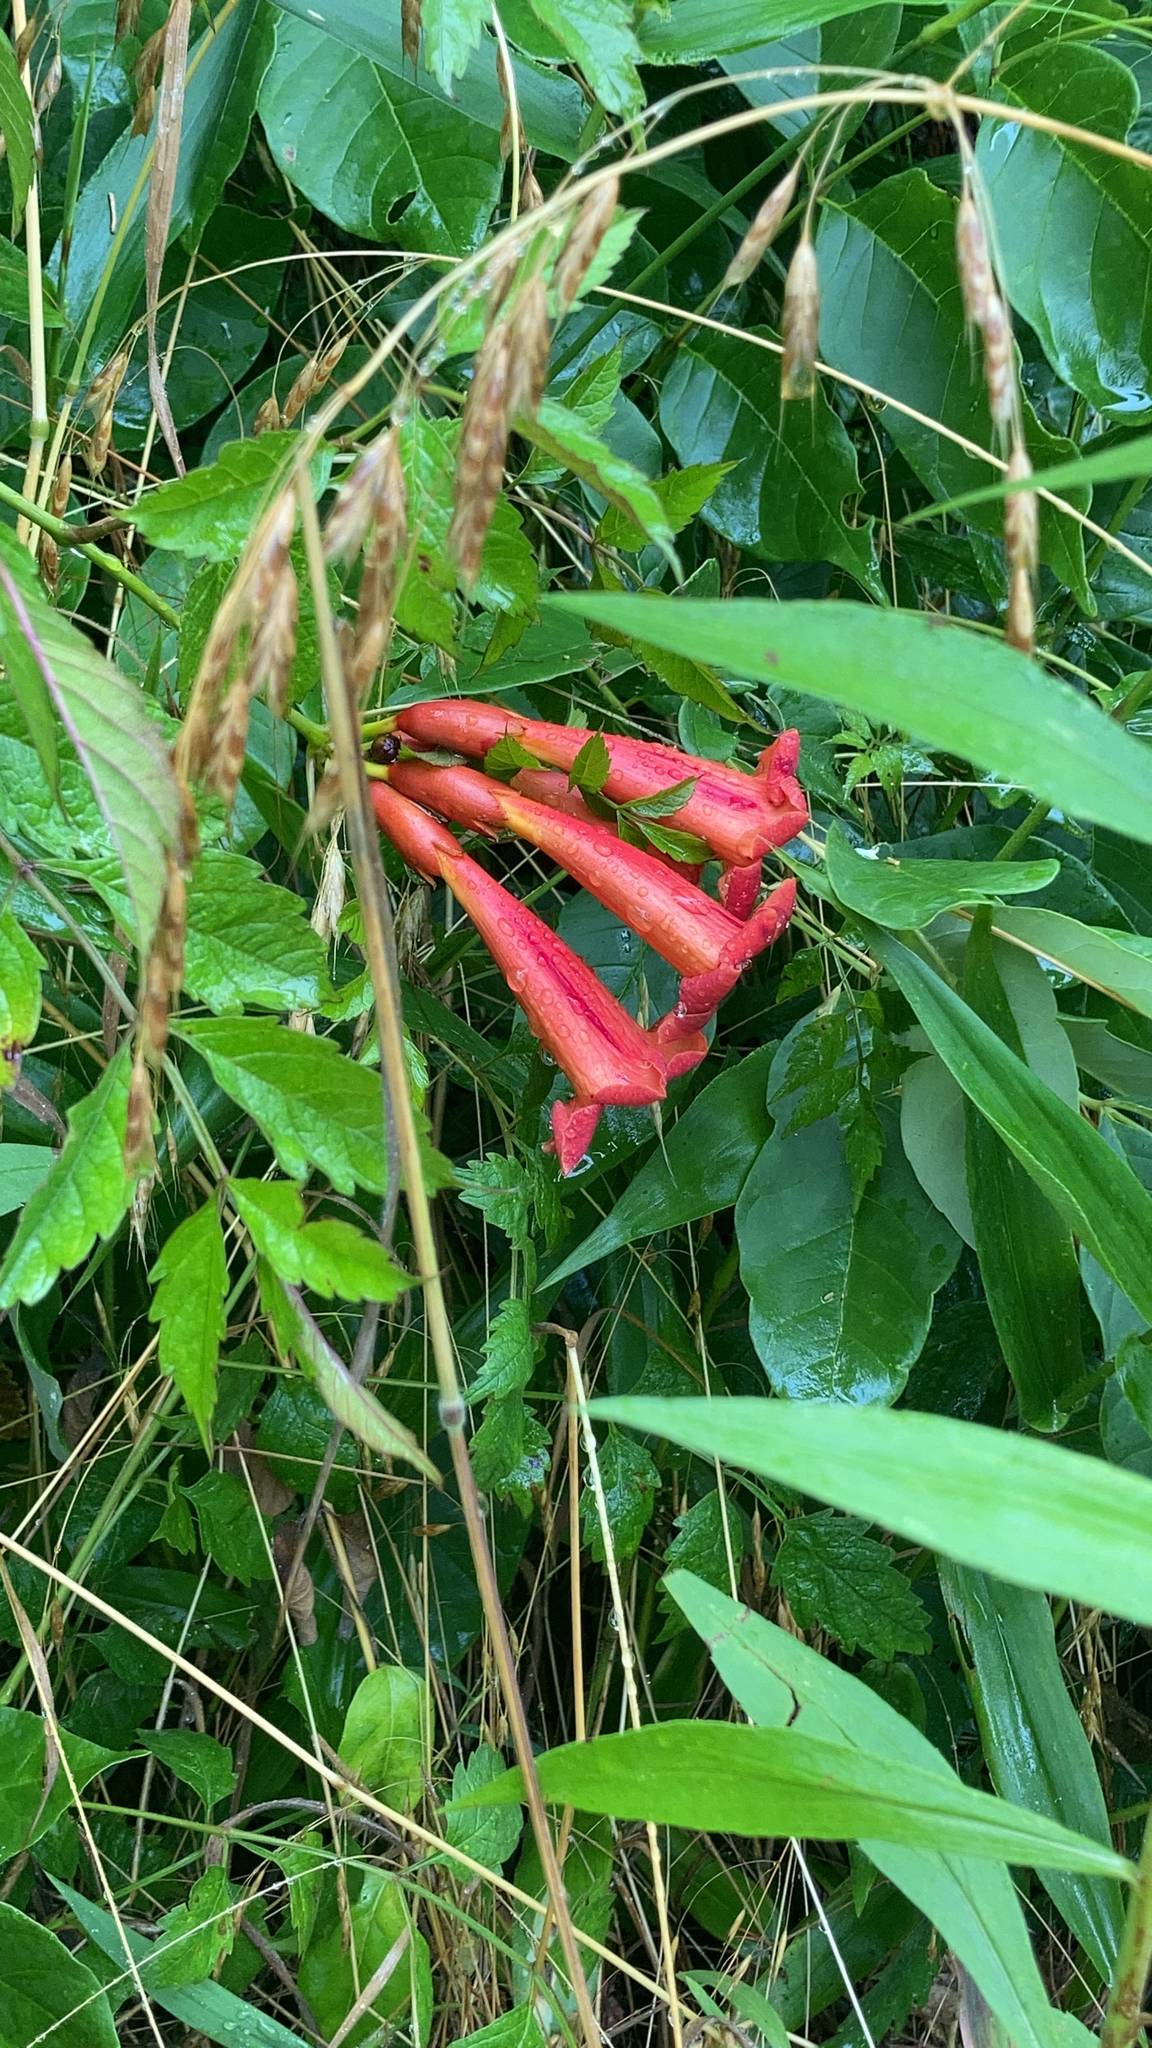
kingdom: Plantae
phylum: Tracheophyta
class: Magnoliopsida
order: Lamiales
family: Bignoniaceae
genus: Campsis
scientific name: Campsis radicans
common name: Trumpet-creeper
